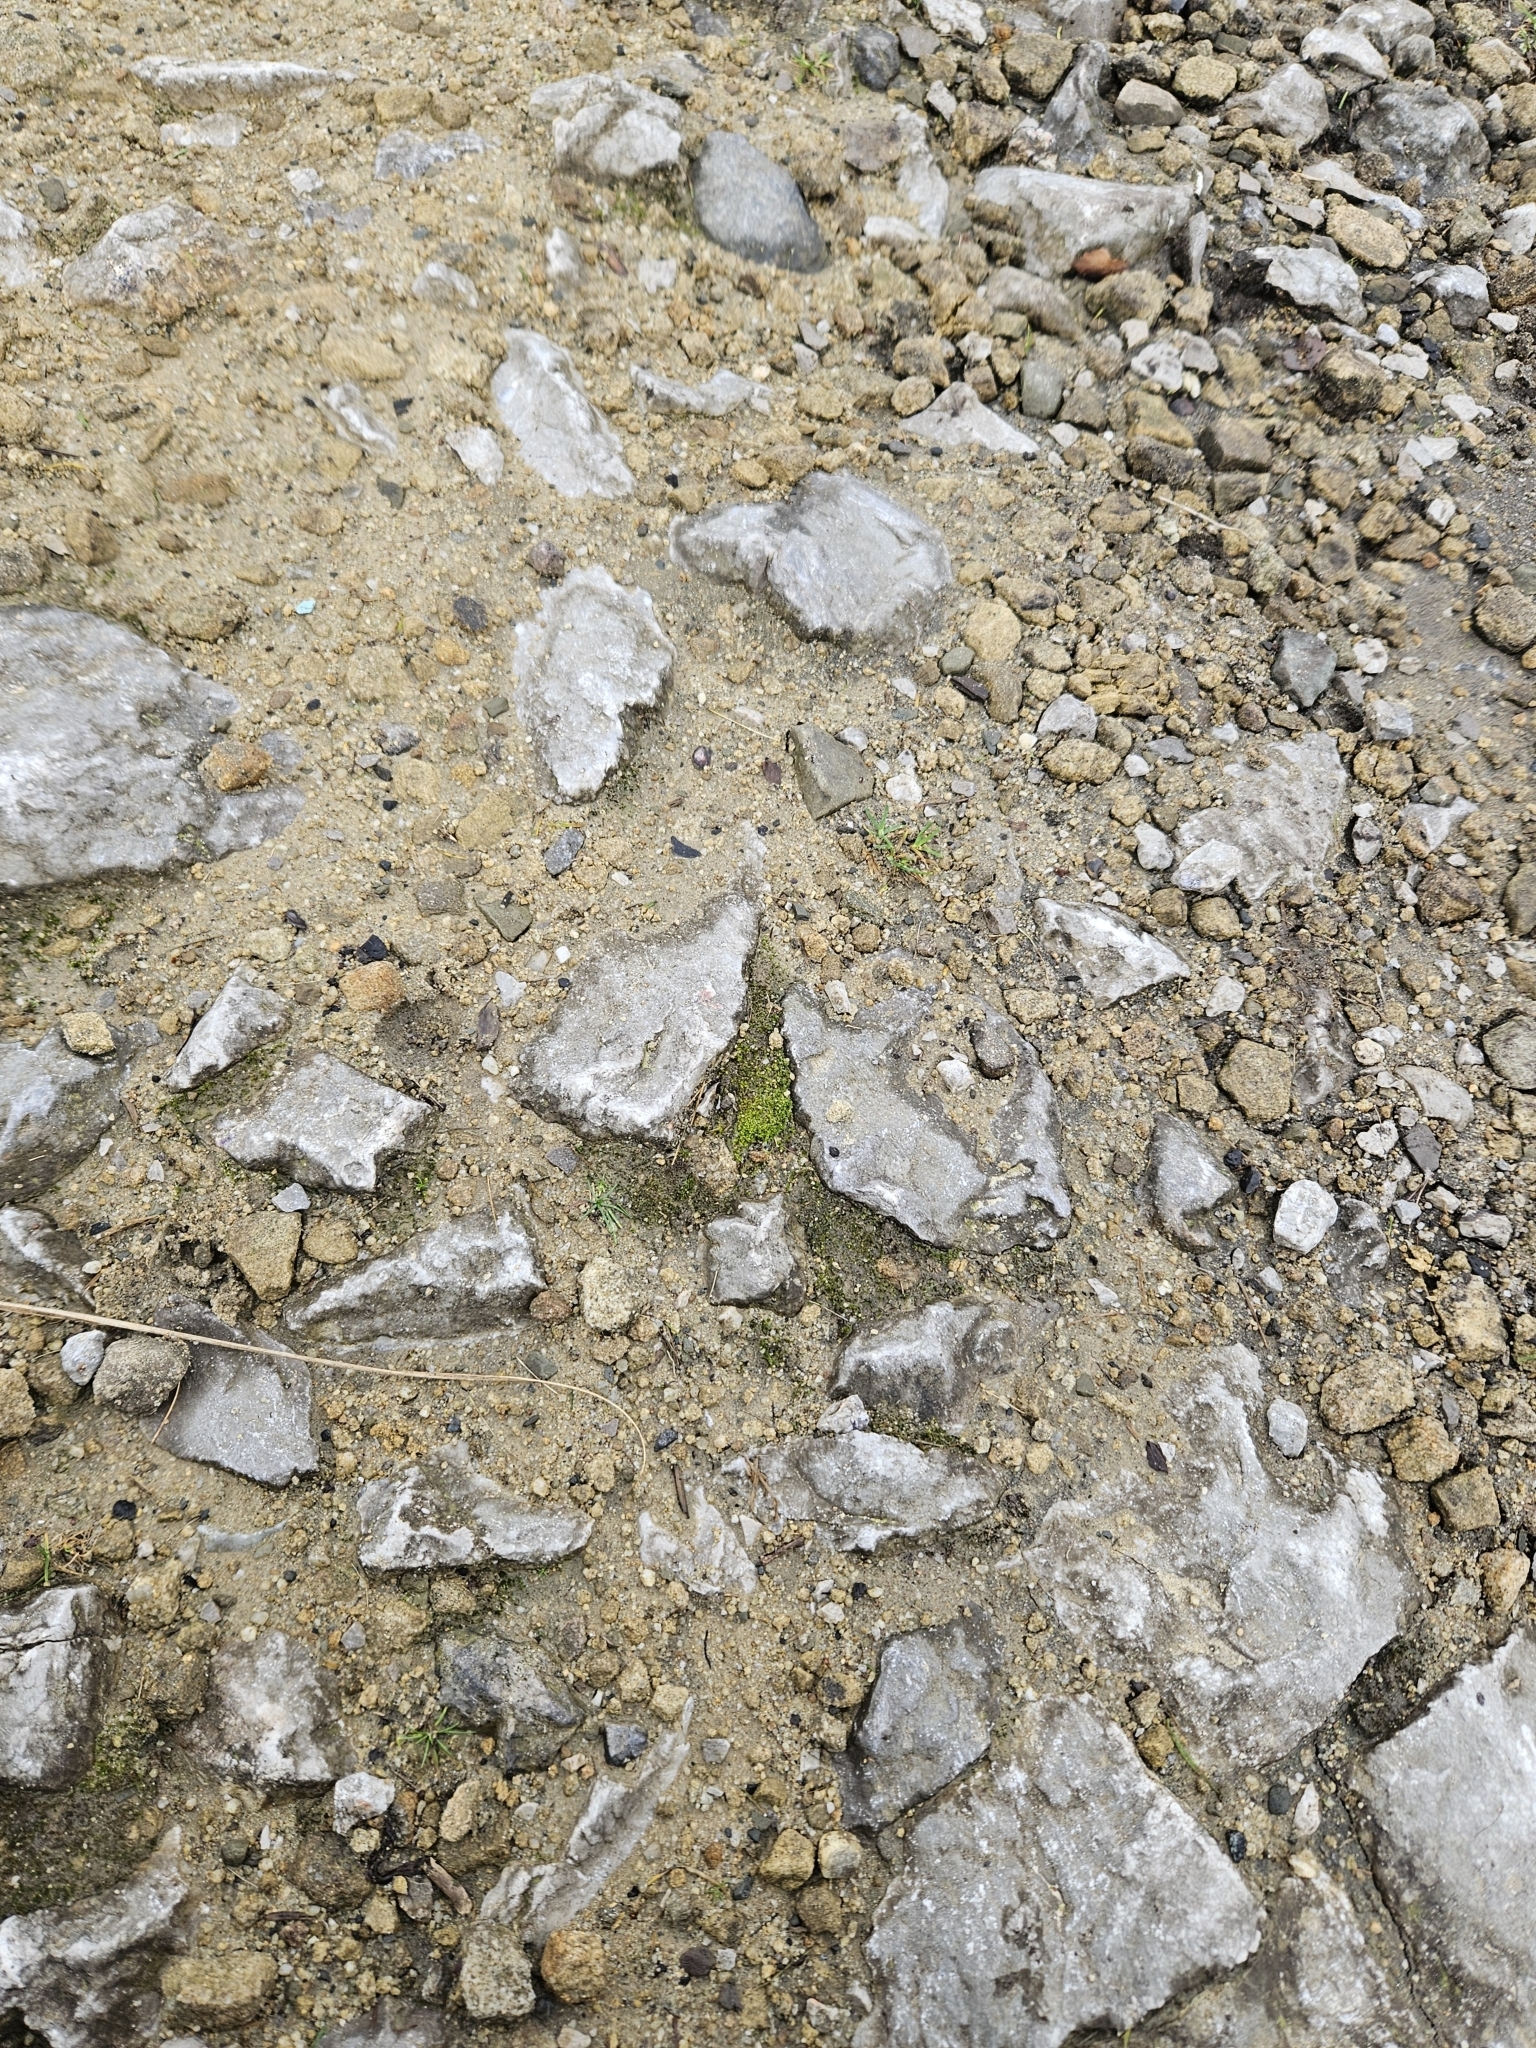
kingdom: Plantae
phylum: Bryophyta
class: Bryopsida
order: Pottiales
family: Pottiaceae
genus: Barbula
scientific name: Barbula unguiculata
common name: Prickly beard moss
